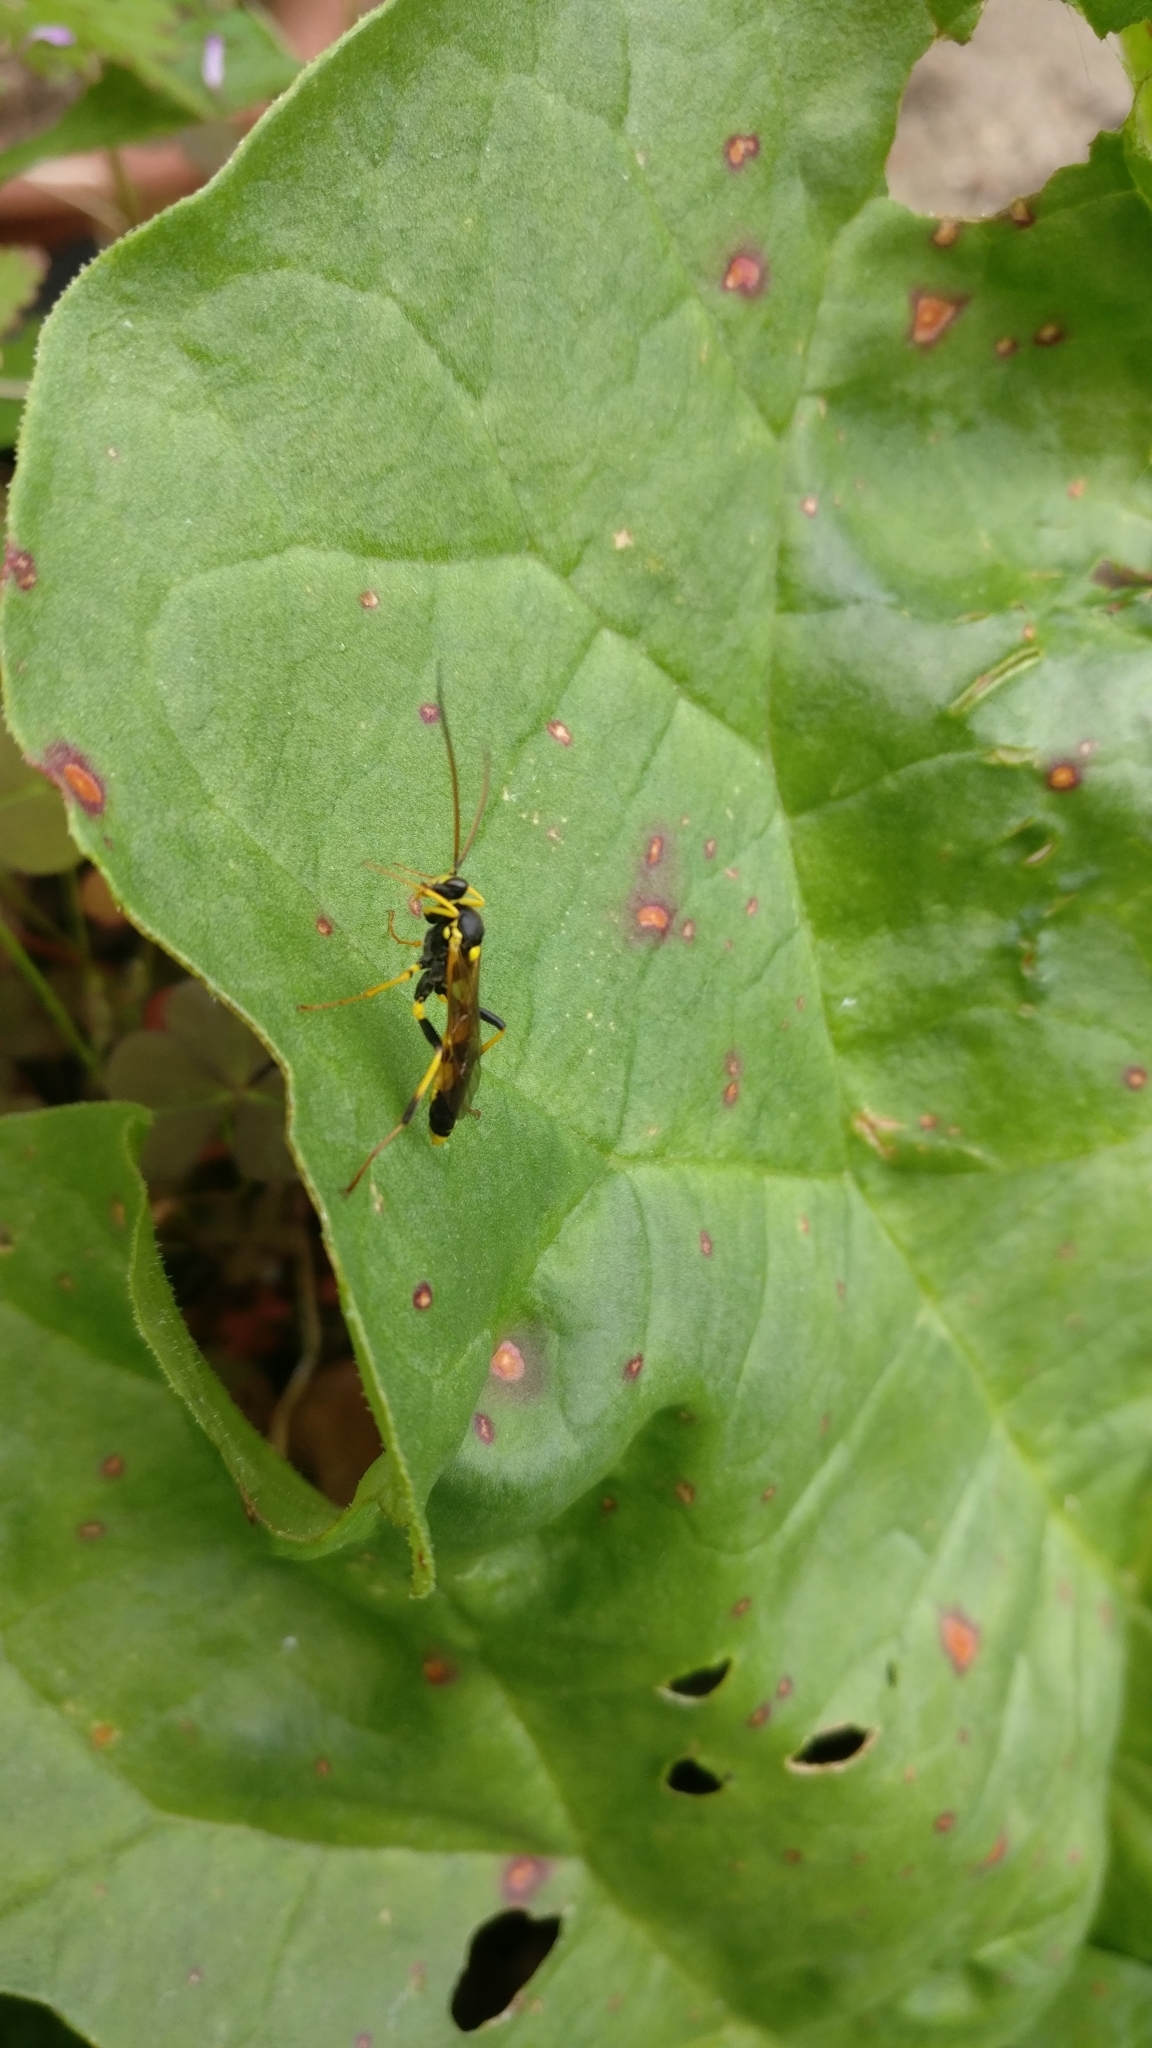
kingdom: Animalia
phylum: Arthropoda
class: Insecta
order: Hymenoptera
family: Ichneumonidae
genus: Amblyteles
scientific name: Amblyteles armatorius
